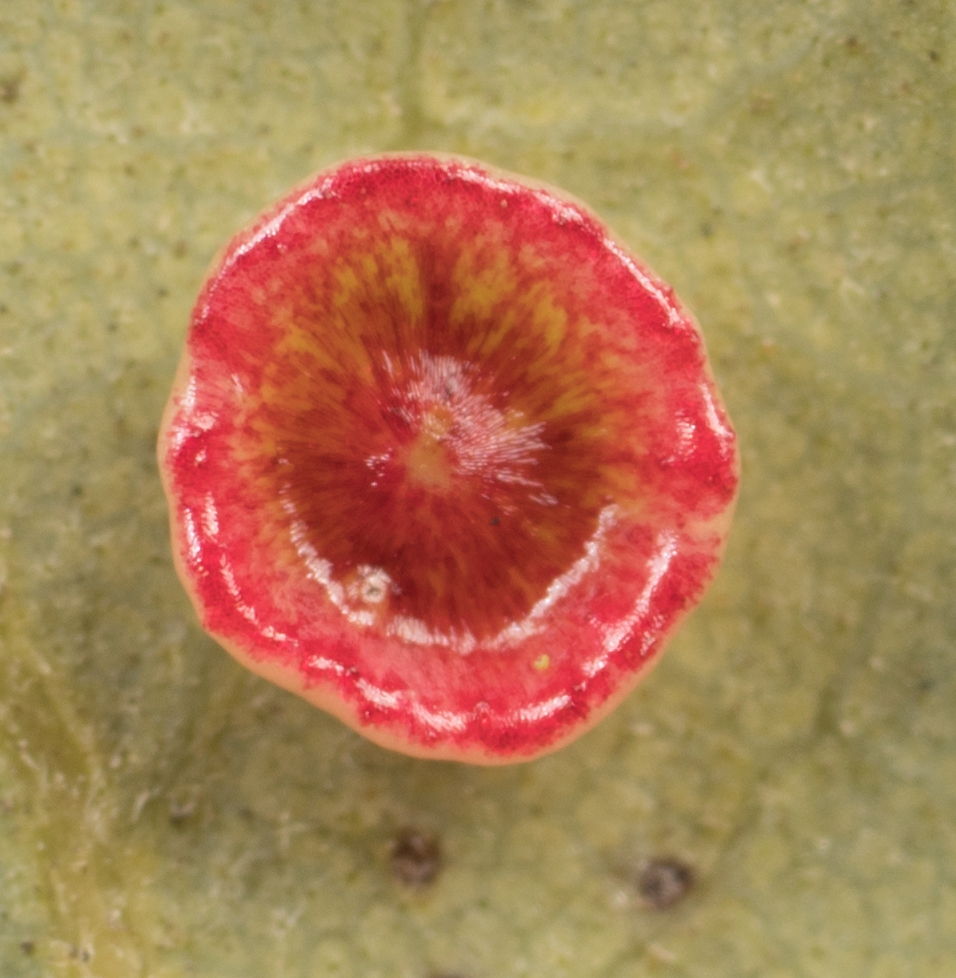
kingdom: Animalia
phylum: Arthropoda
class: Insecta
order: Hymenoptera
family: Cynipidae
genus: Andricus
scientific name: Andricus
